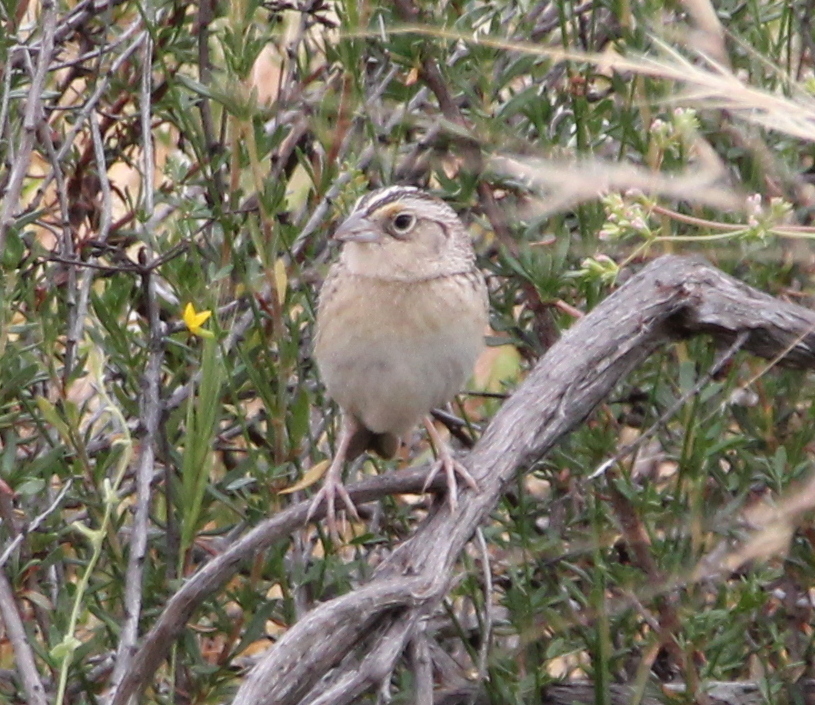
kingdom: Animalia
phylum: Chordata
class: Aves
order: Passeriformes
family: Passerellidae
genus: Ammodramus
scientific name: Ammodramus savannarum
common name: Grasshopper sparrow
